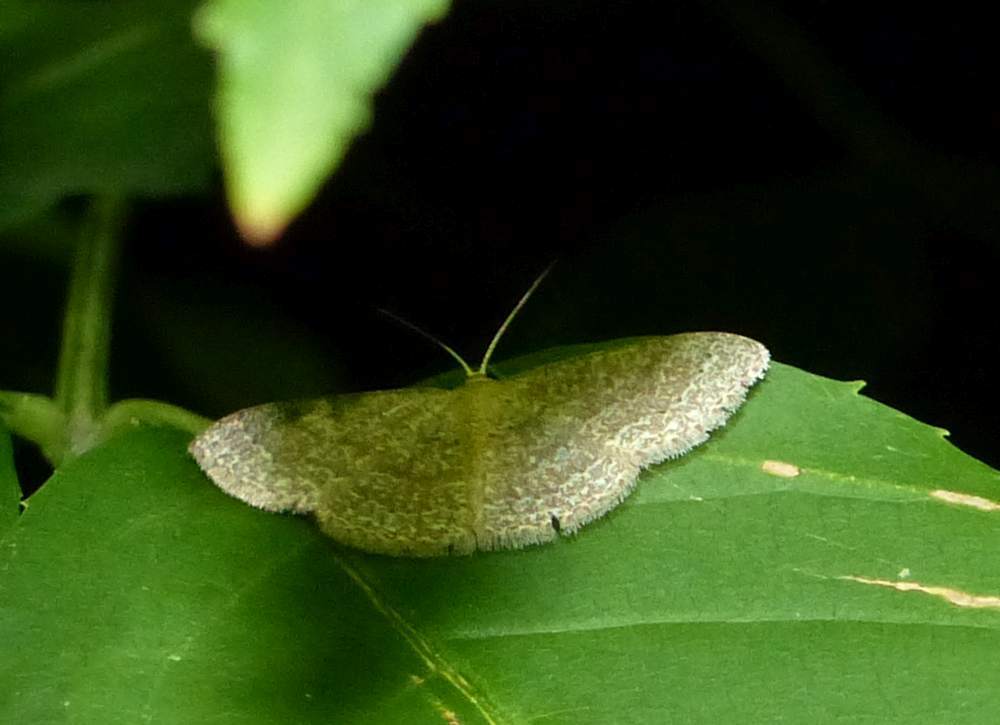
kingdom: Animalia
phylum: Arthropoda
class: Insecta
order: Lepidoptera
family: Geometridae
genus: Pleuroprucha
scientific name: Pleuroprucha insulsaria
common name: Common tan wave
